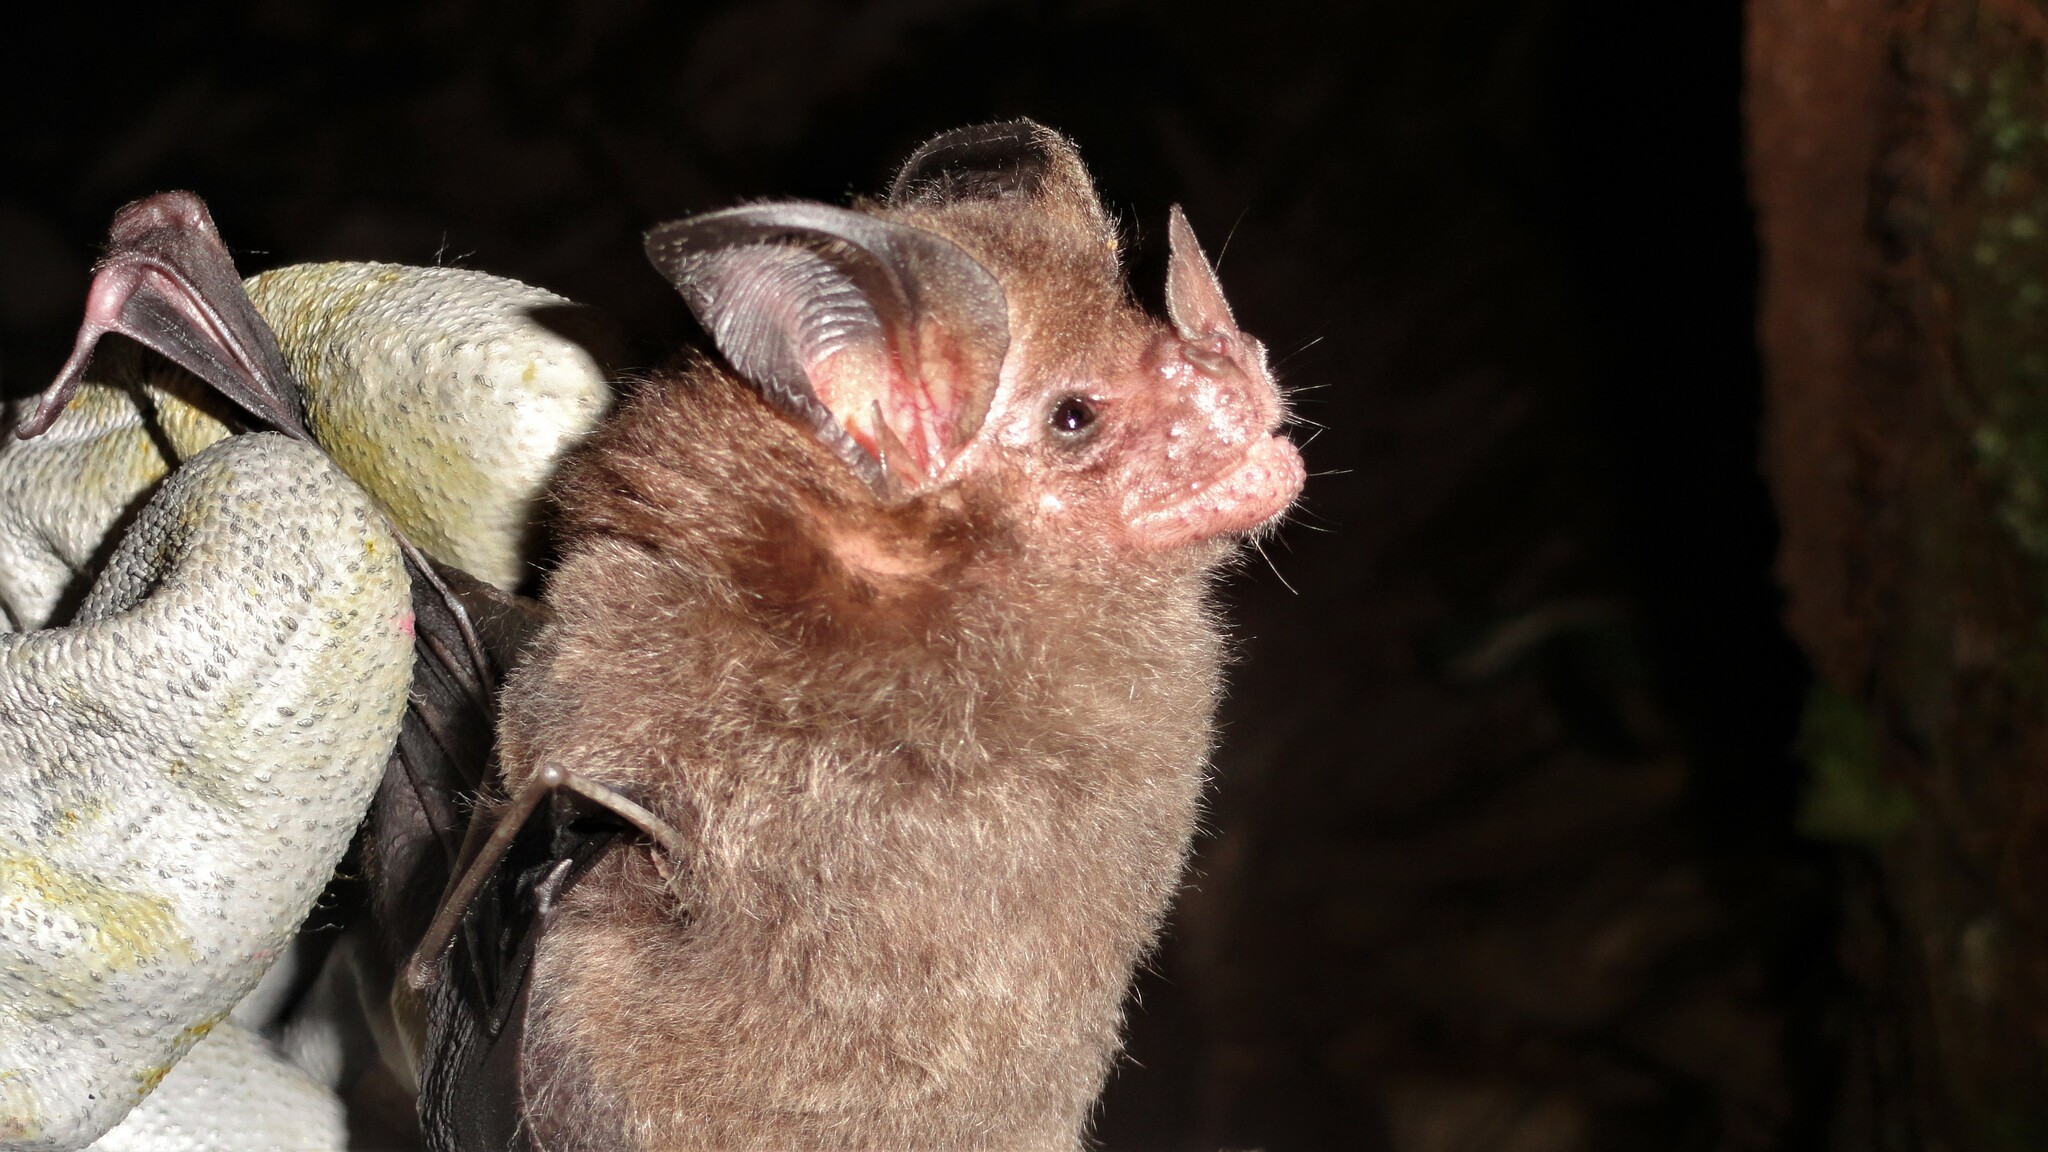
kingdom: Animalia
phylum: Chordata
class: Mammalia
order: Chiroptera
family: Phyllostomidae
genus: Tonatia
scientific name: Tonatia maresi
